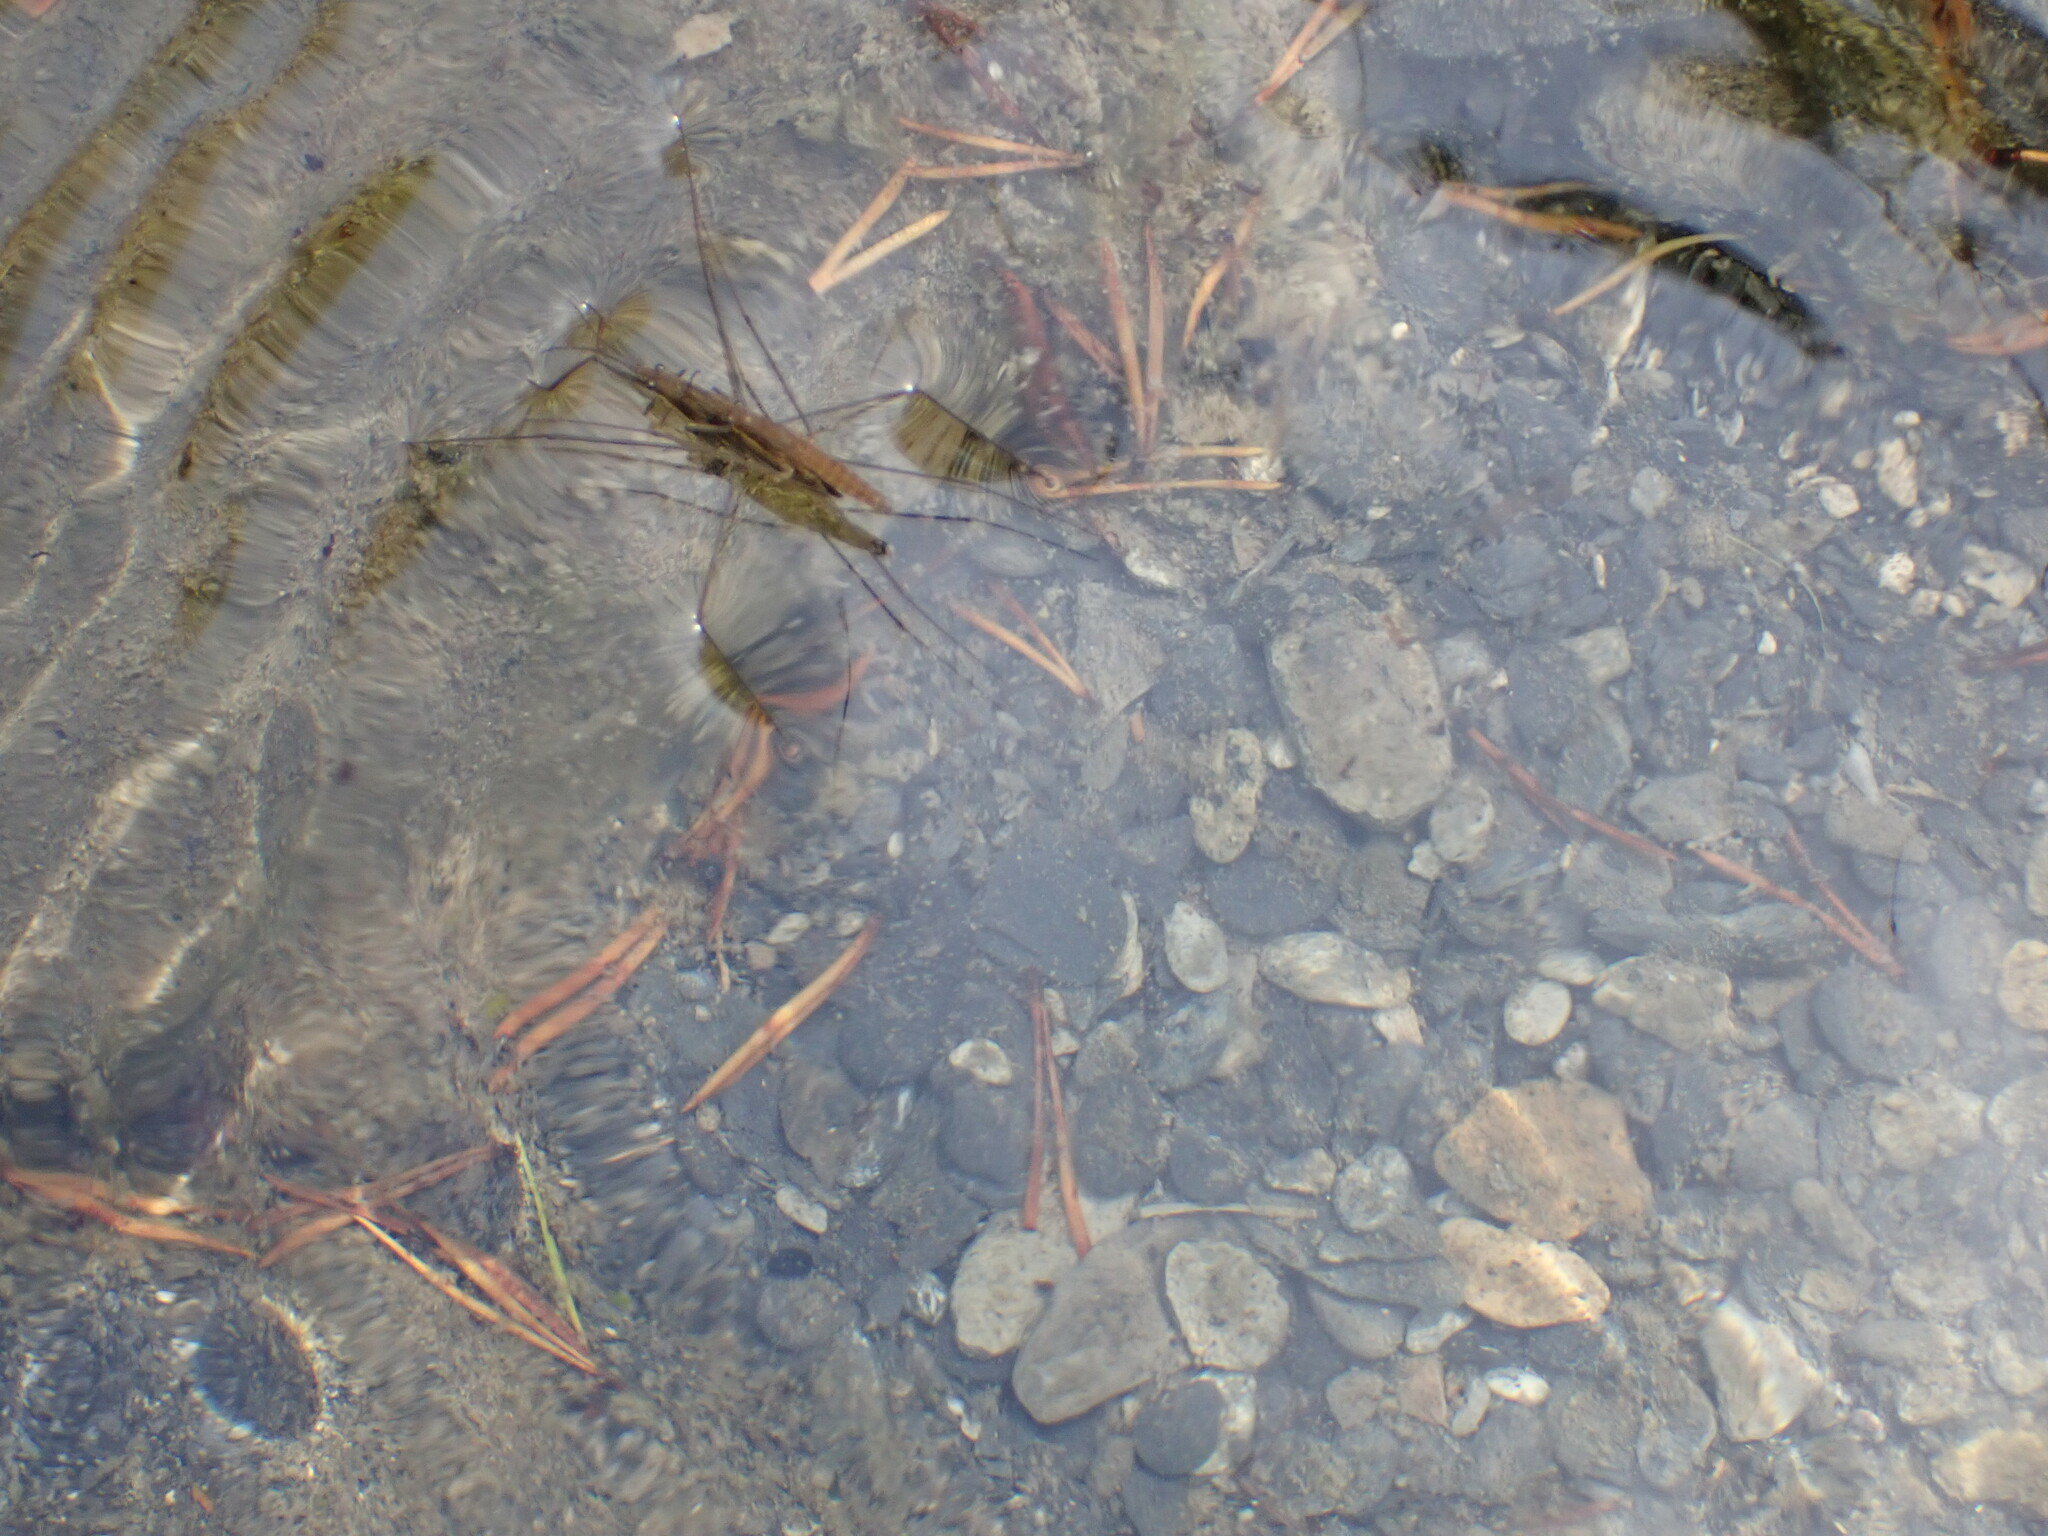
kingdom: Animalia
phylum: Arthropoda
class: Insecta
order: Hemiptera
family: Gerridae
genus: Aquarius
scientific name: Aquarius najas
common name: River skater
